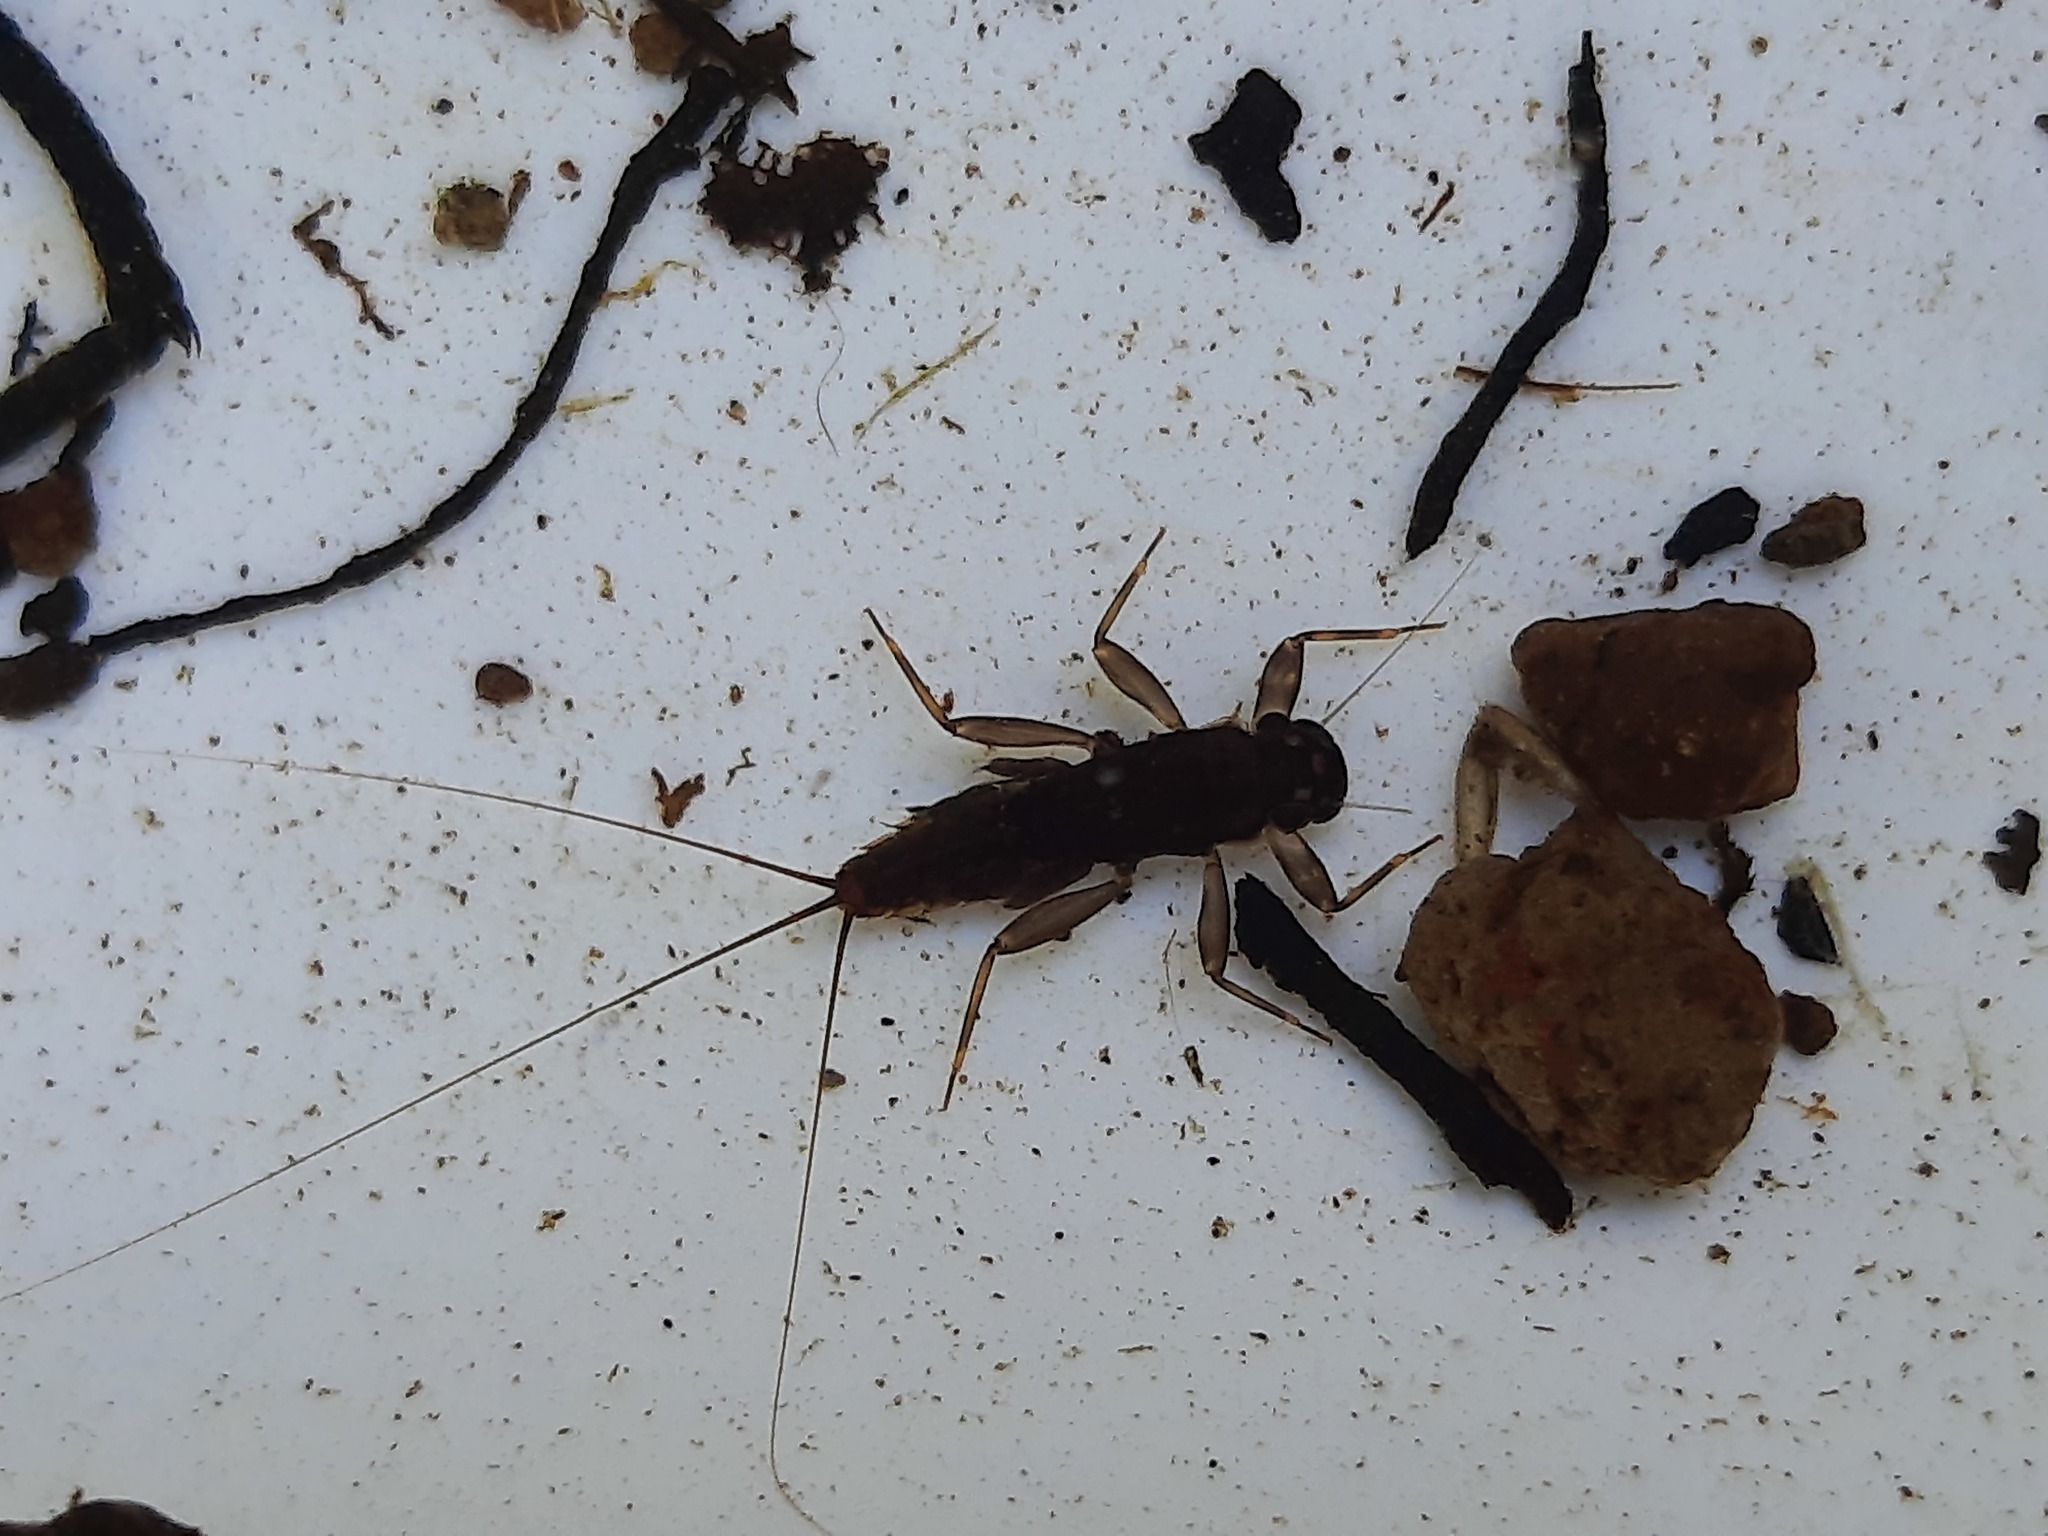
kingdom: Animalia
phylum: Arthropoda
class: Insecta
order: Ephemeroptera
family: Leptophlebiidae
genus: Zephlebia
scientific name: Zephlebia borealis
